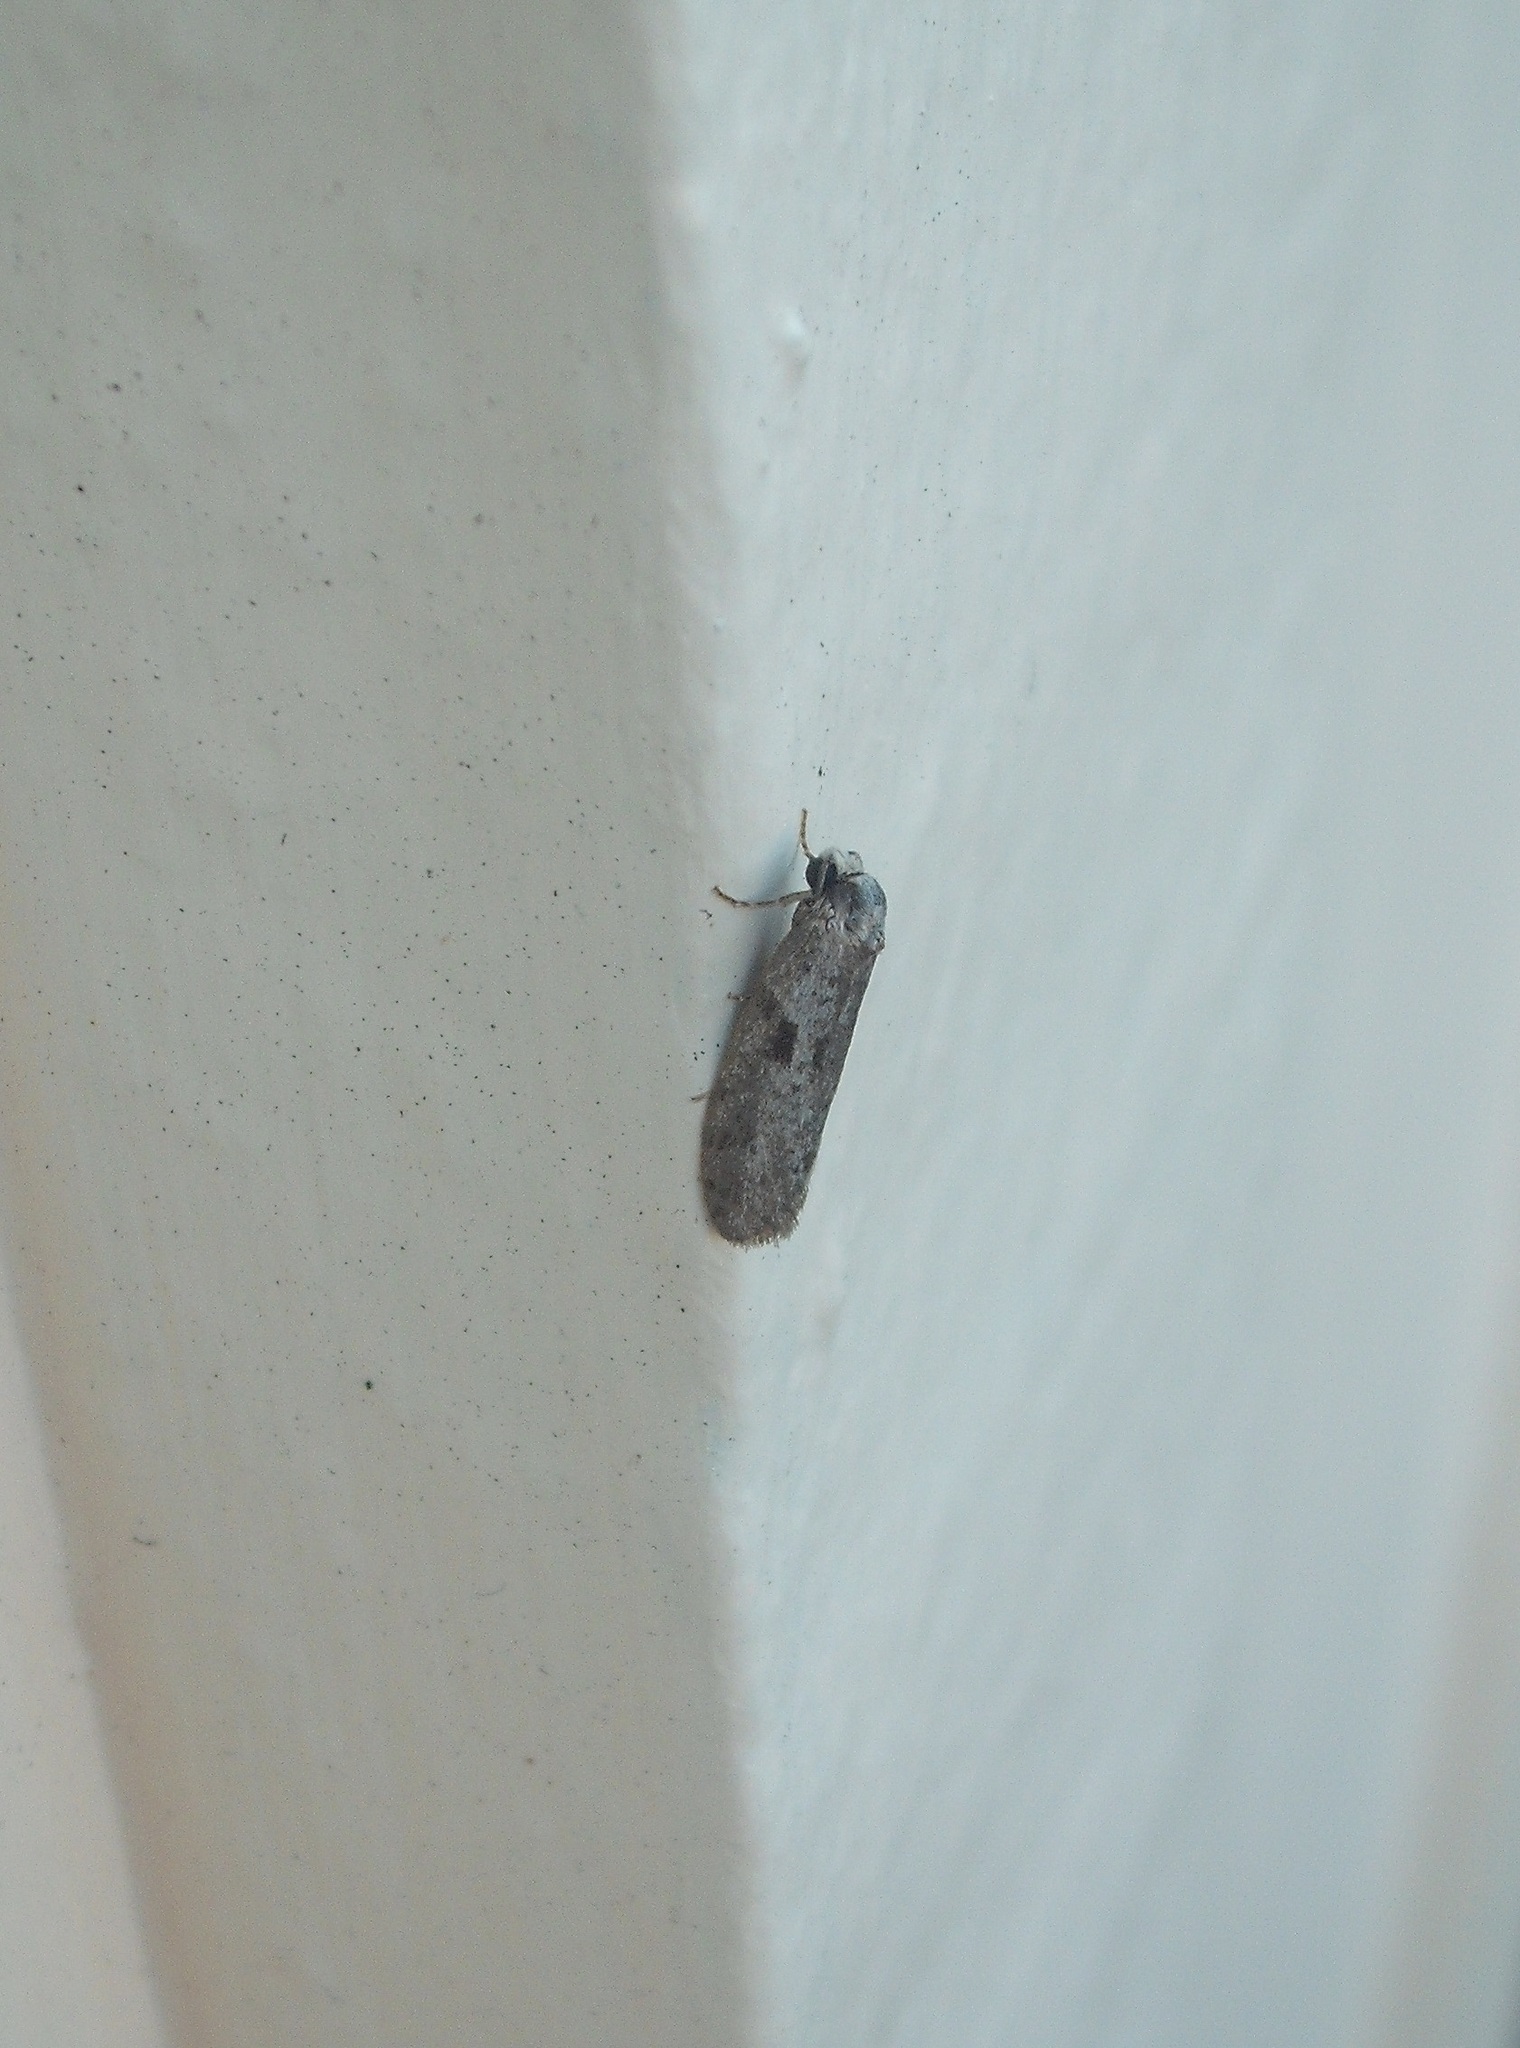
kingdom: Animalia
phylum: Arthropoda
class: Insecta
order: Lepidoptera
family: Psychidae
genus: Lepidoscia
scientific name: Lepidoscia protorna
